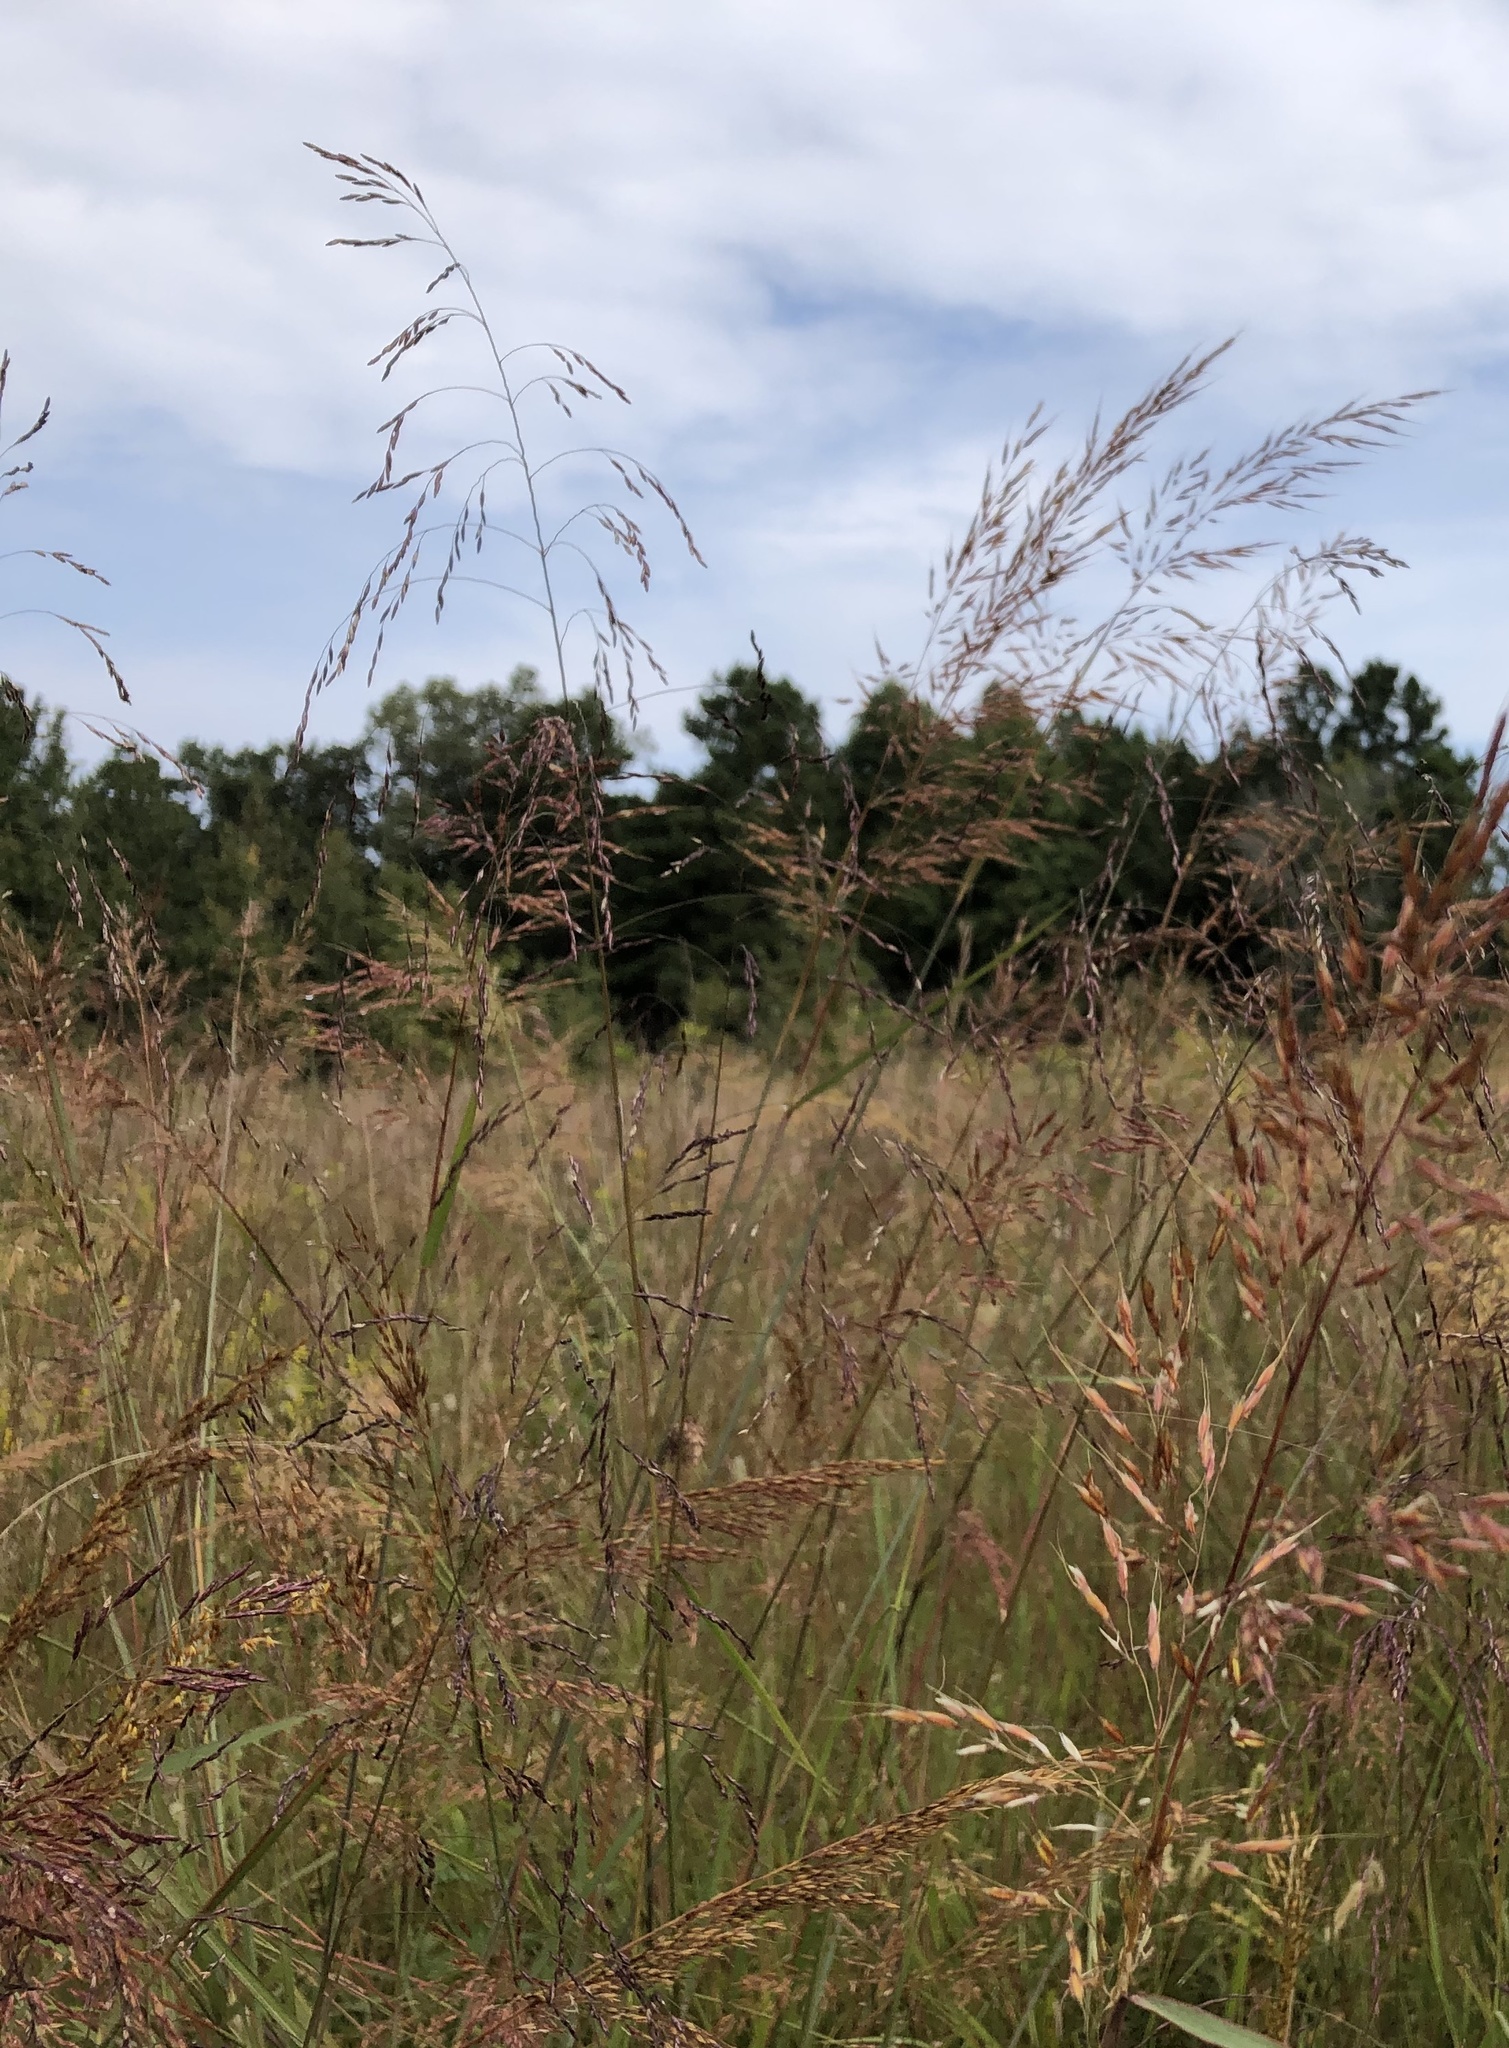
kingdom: Plantae
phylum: Tracheophyta
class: Liliopsida
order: Poales
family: Poaceae
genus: Tridens
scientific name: Tridens flavus
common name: Purpletop
